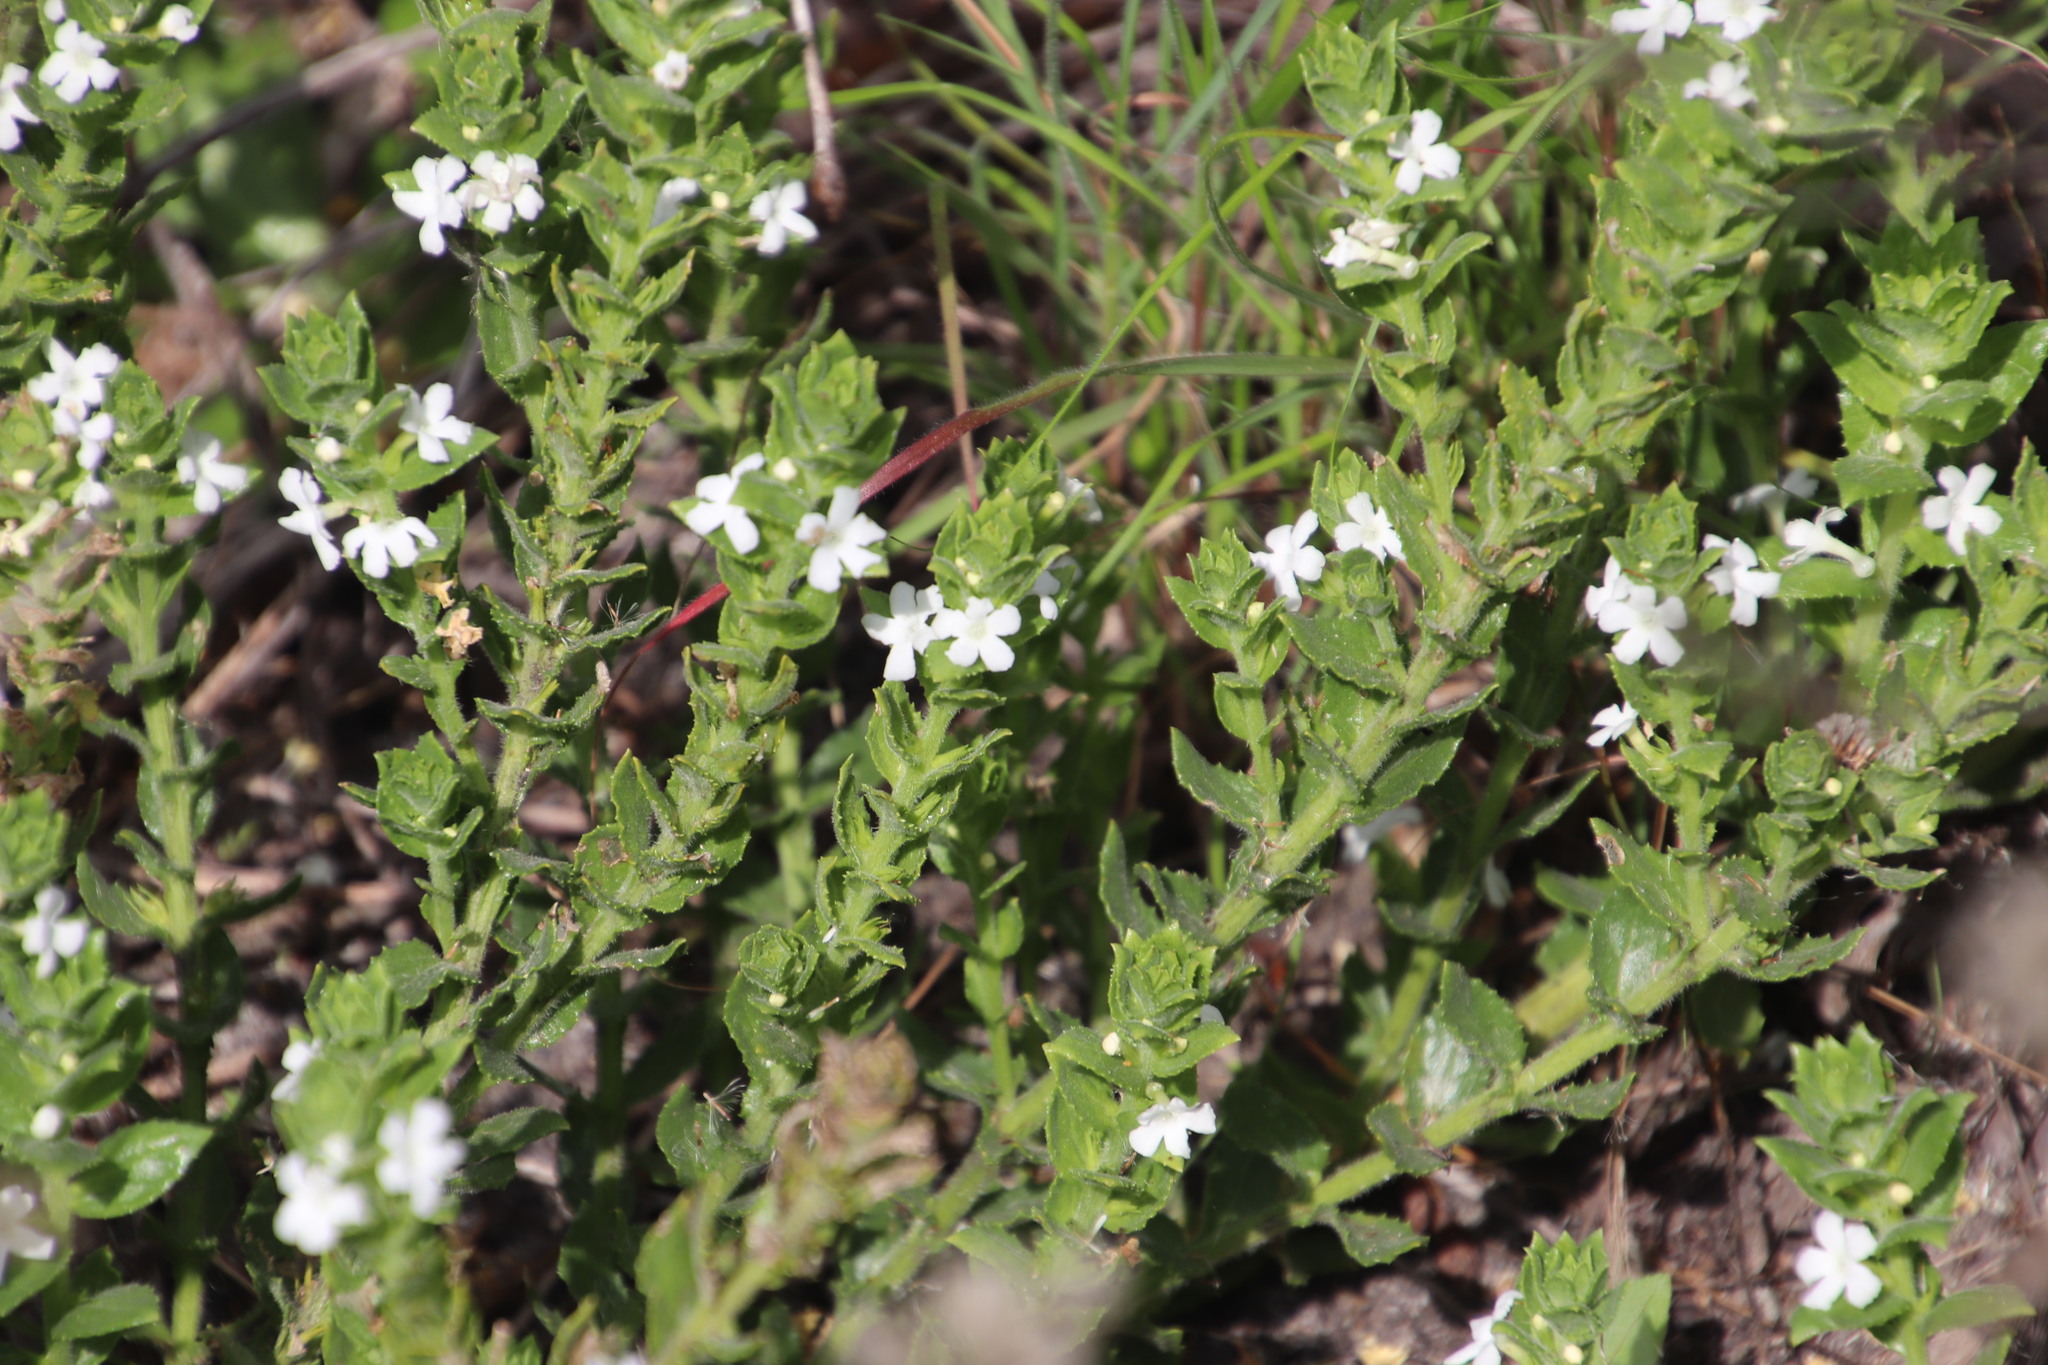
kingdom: Plantae
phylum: Tracheophyta
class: Magnoliopsida
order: Lamiales
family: Scrophulariaceae
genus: Oftia
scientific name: Oftia africana
